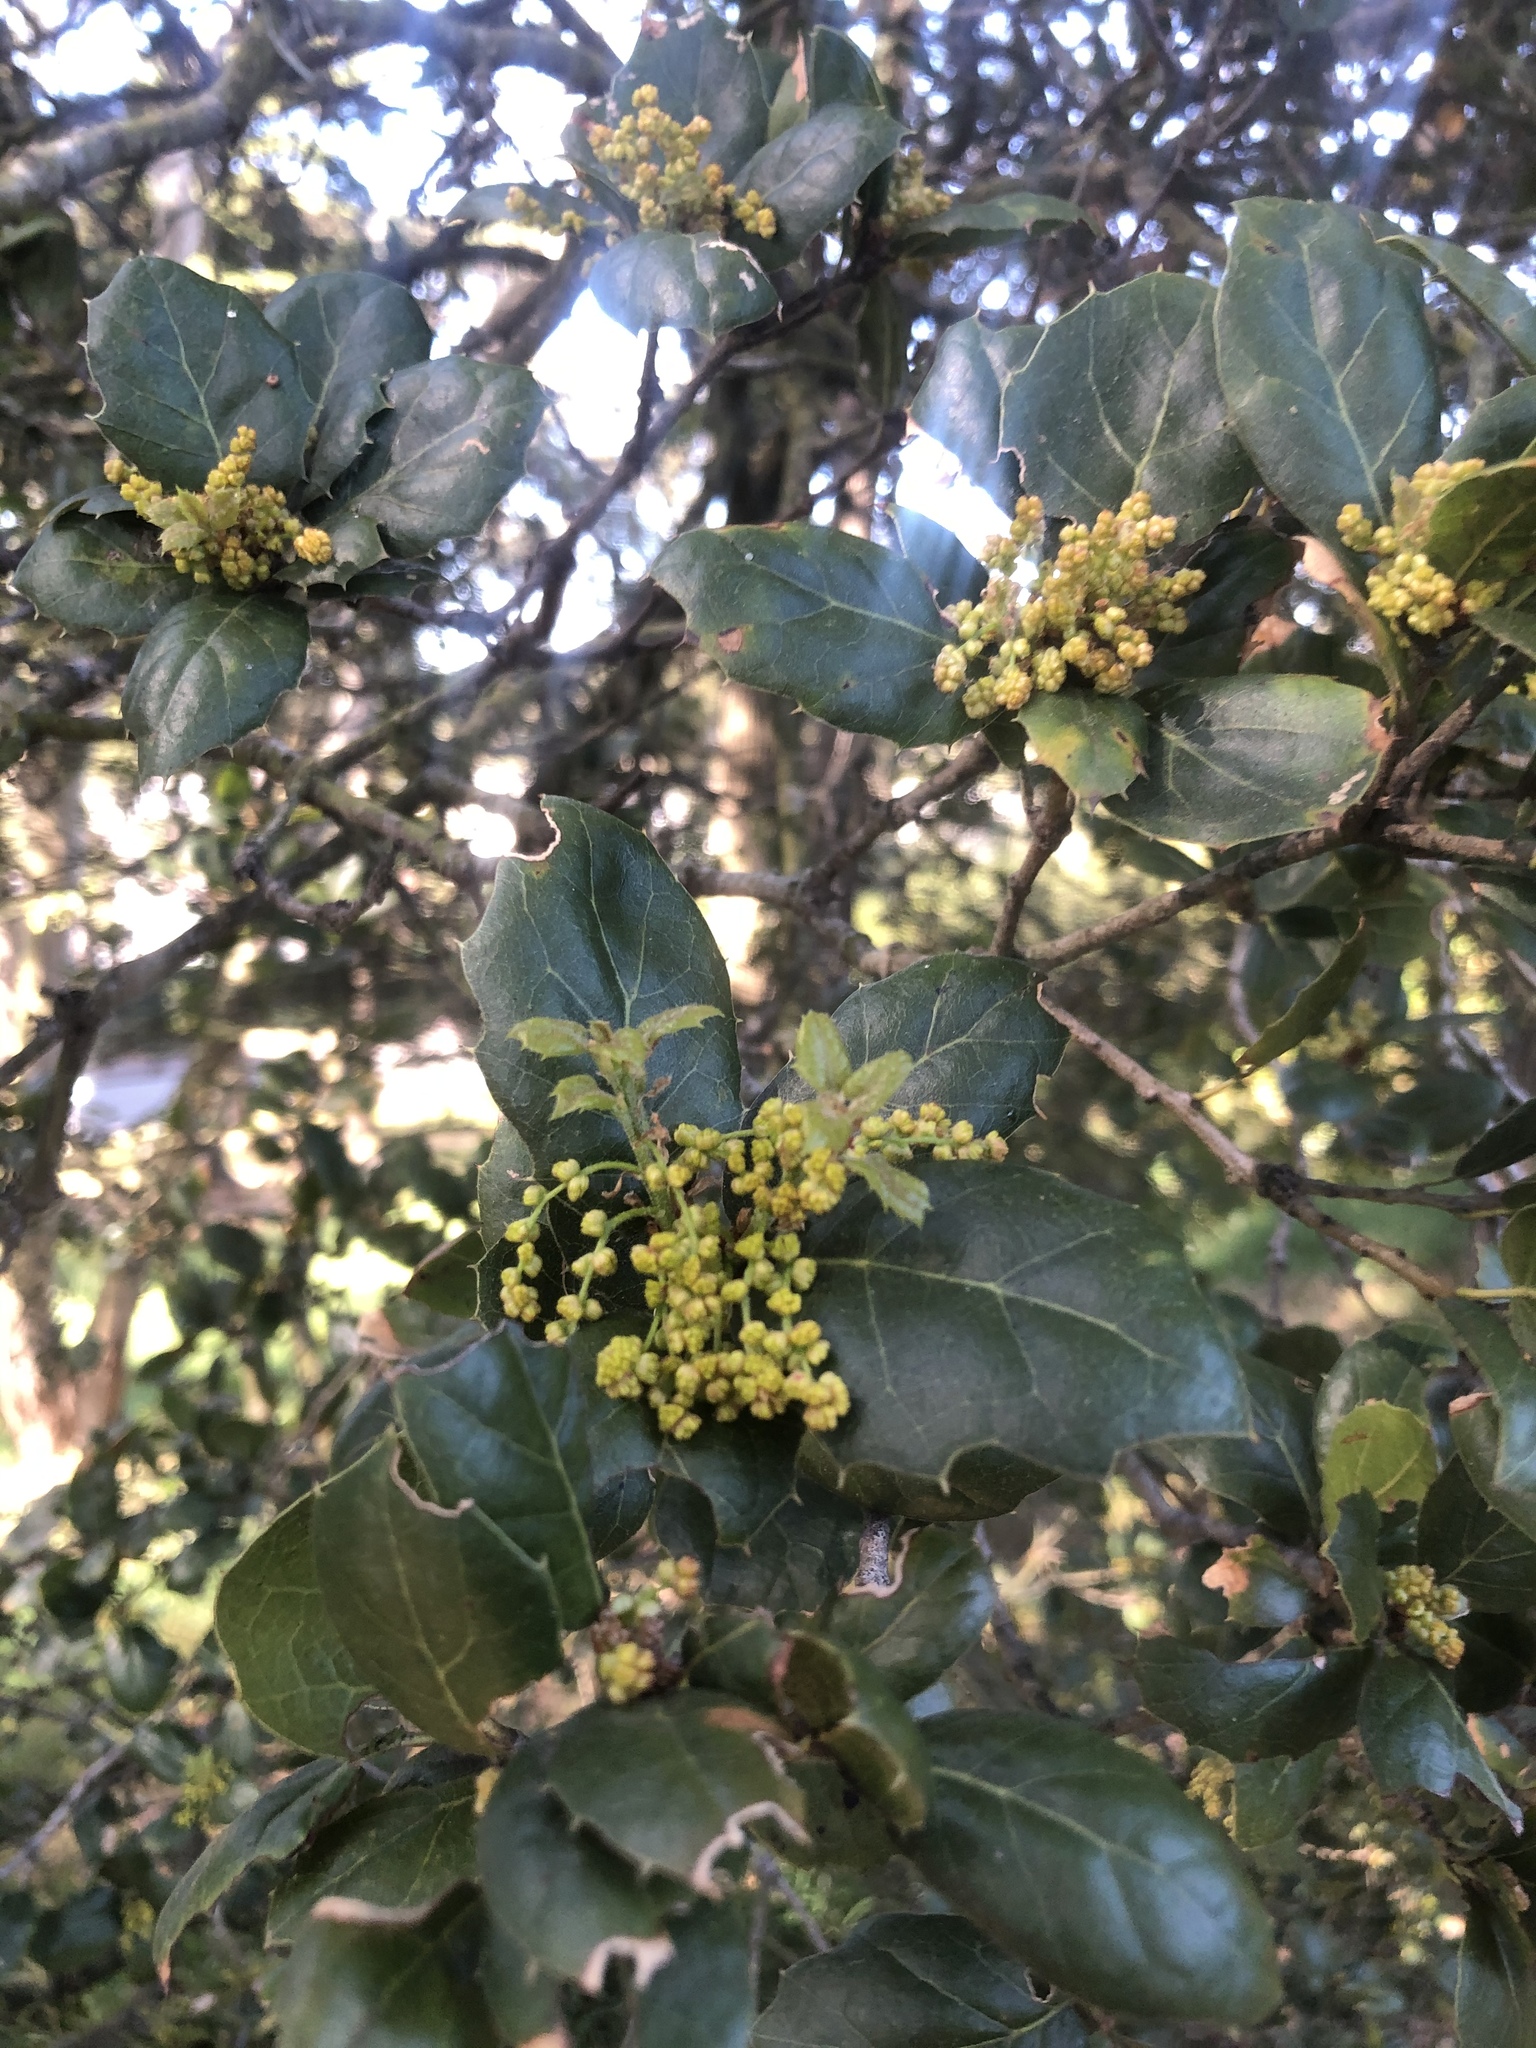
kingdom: Plantae
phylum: Tracheophyta
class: Magnoliopsida
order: Fagales
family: Fagaceae
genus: Quercus
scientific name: Quercus agrifolia
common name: California live oak
